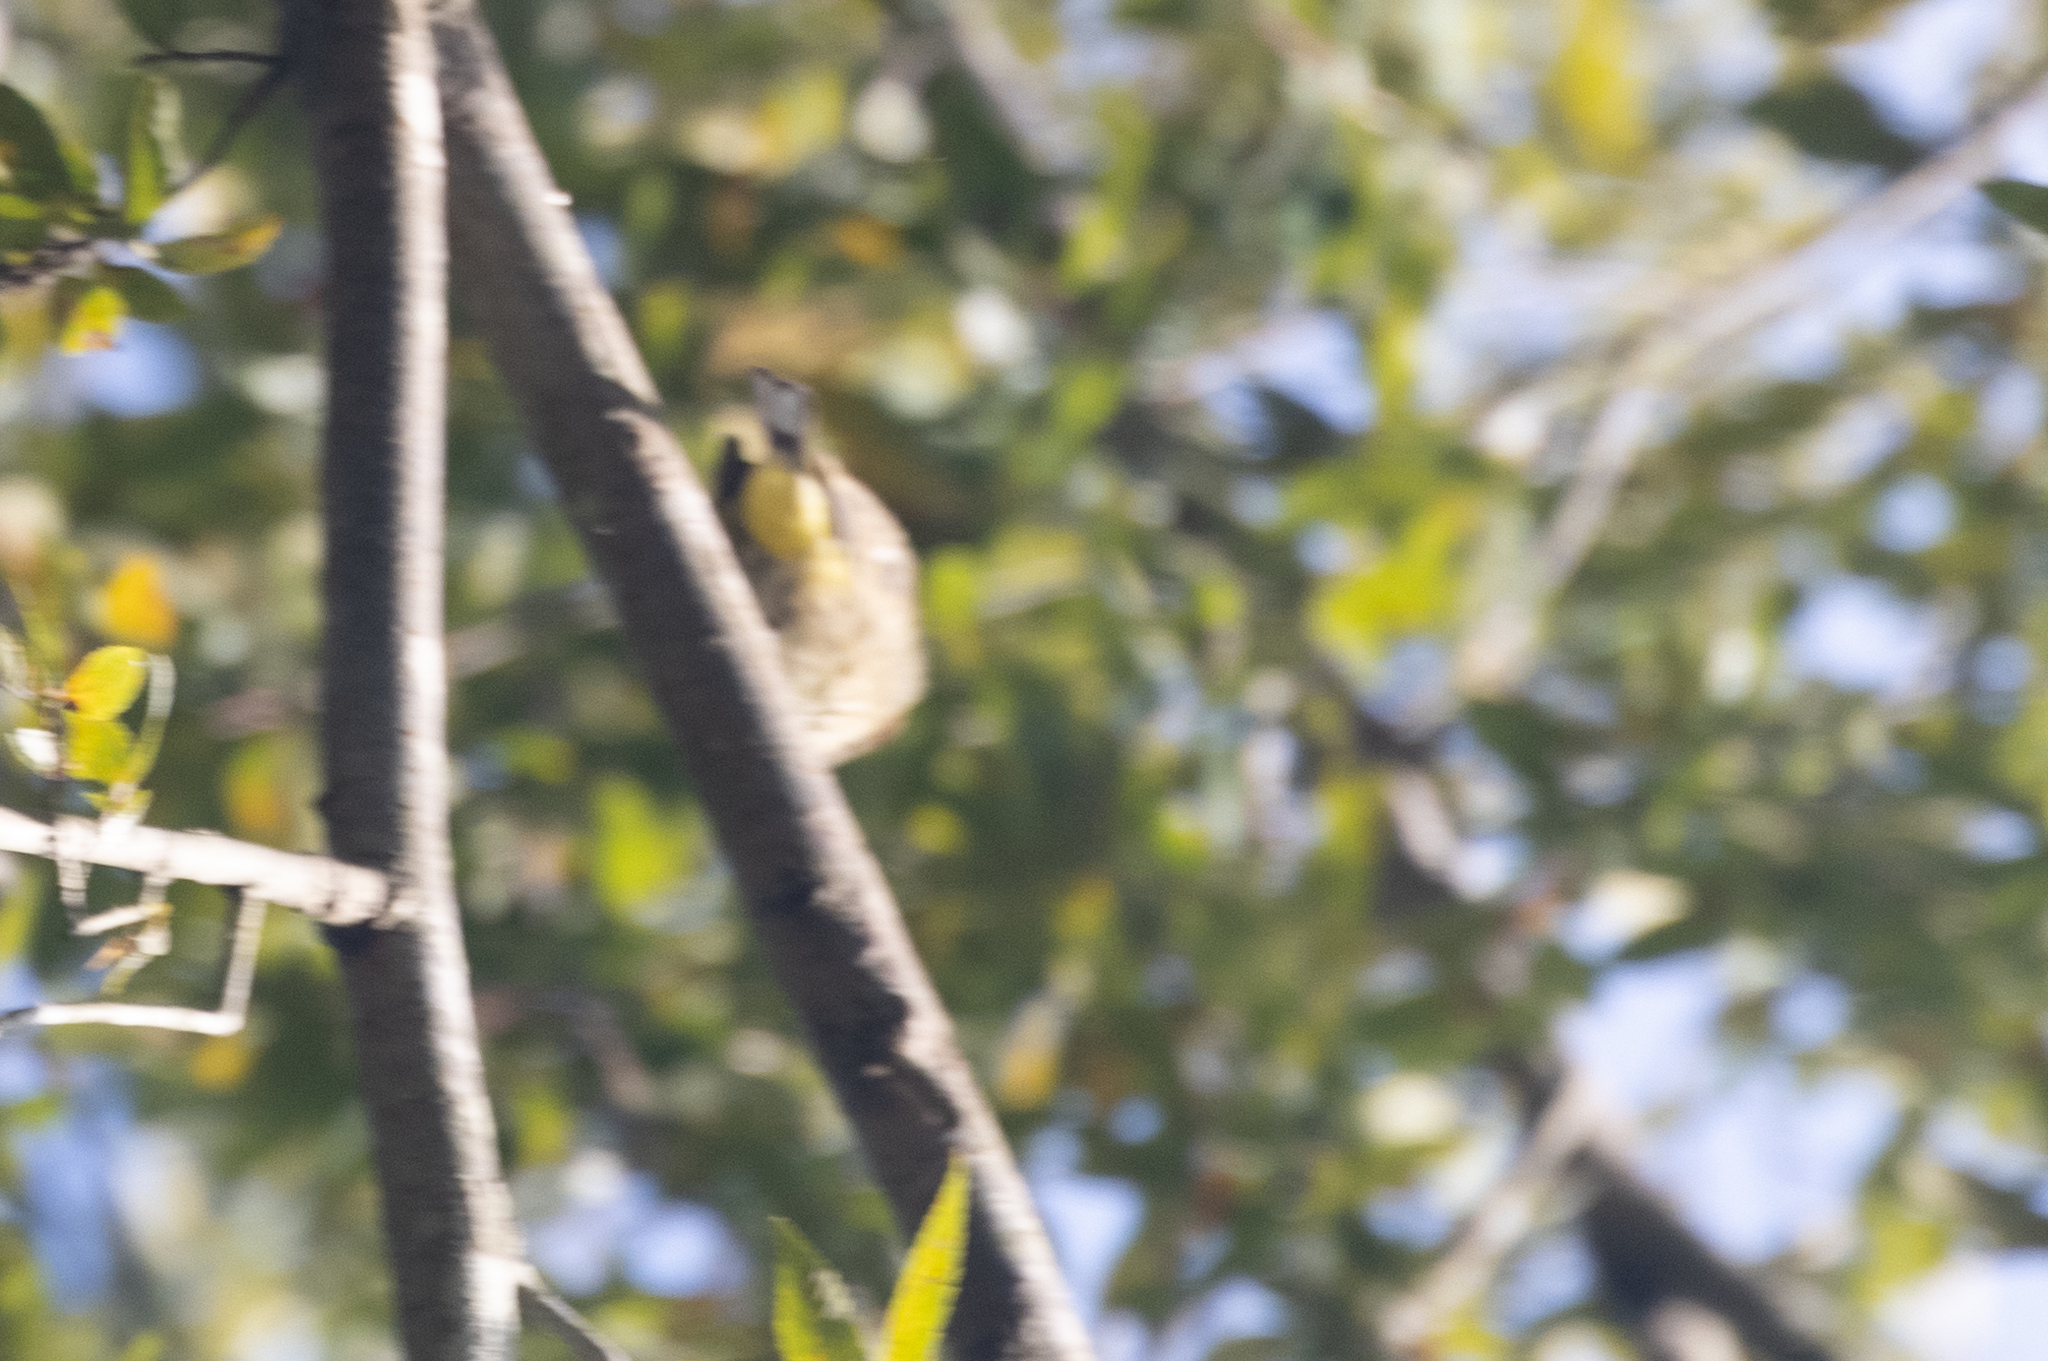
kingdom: Animalia
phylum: Chordata
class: Aves
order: Passeriformes
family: Parulidae
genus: Setophaga
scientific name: Setophaga palmarum
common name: Palm warbler
